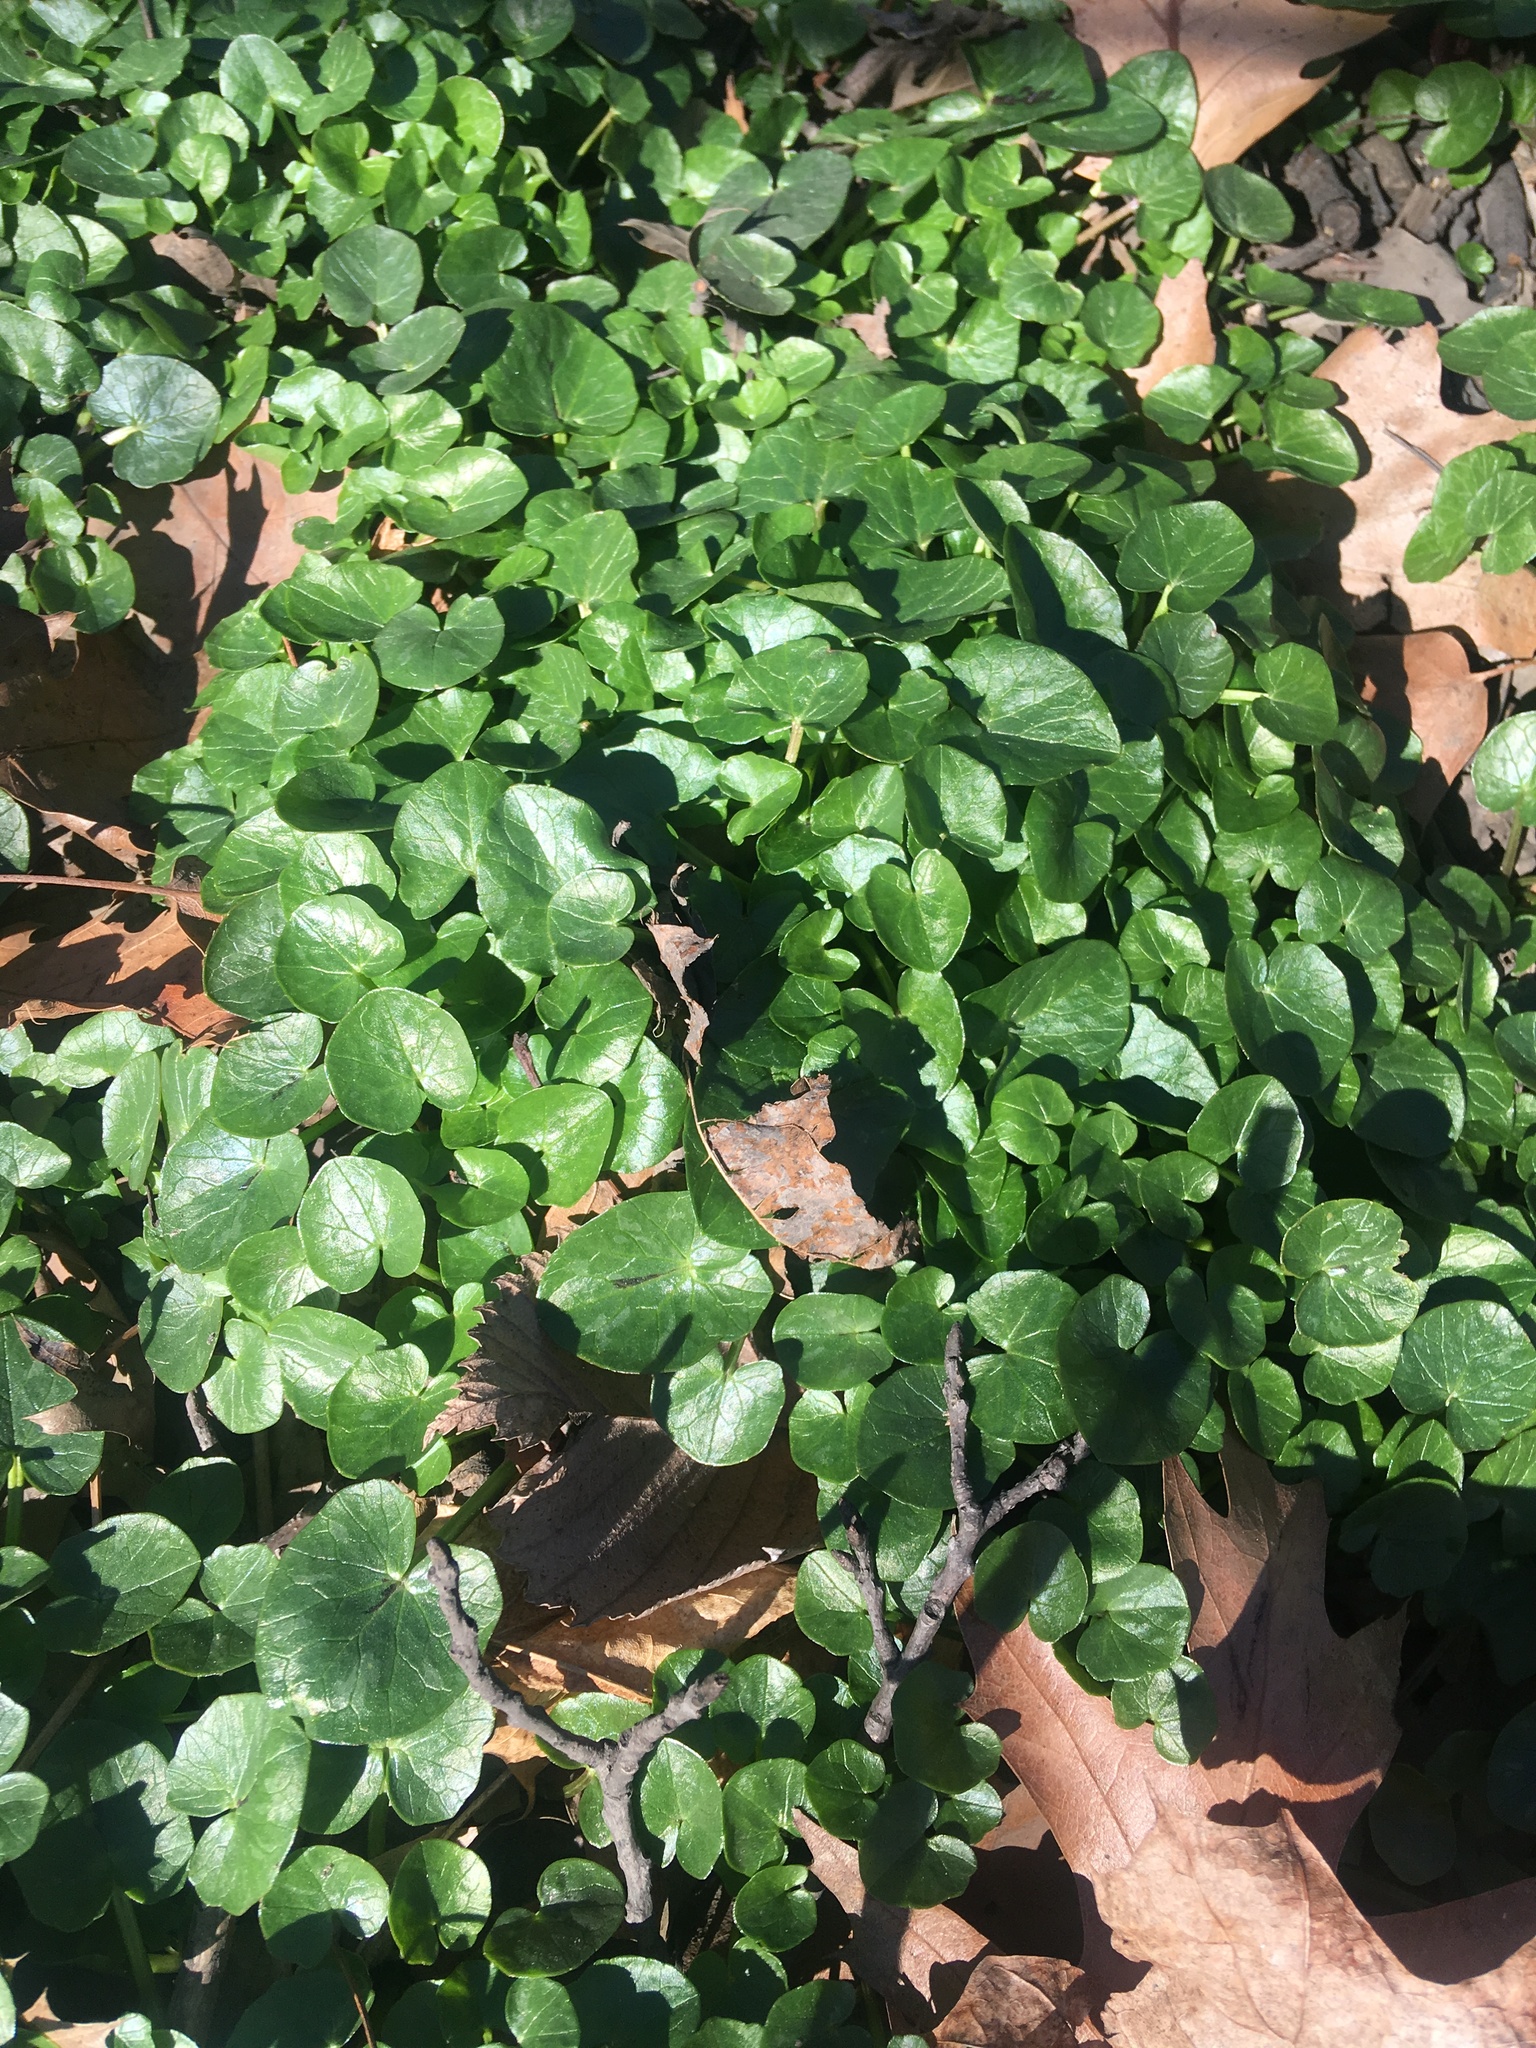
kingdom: Plantae
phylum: Tracheophyta
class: Magnoliopsida
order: Ranunculales
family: Ranunculaceae
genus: Ficaria
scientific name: Ficaria verna
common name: Lesser celandine
